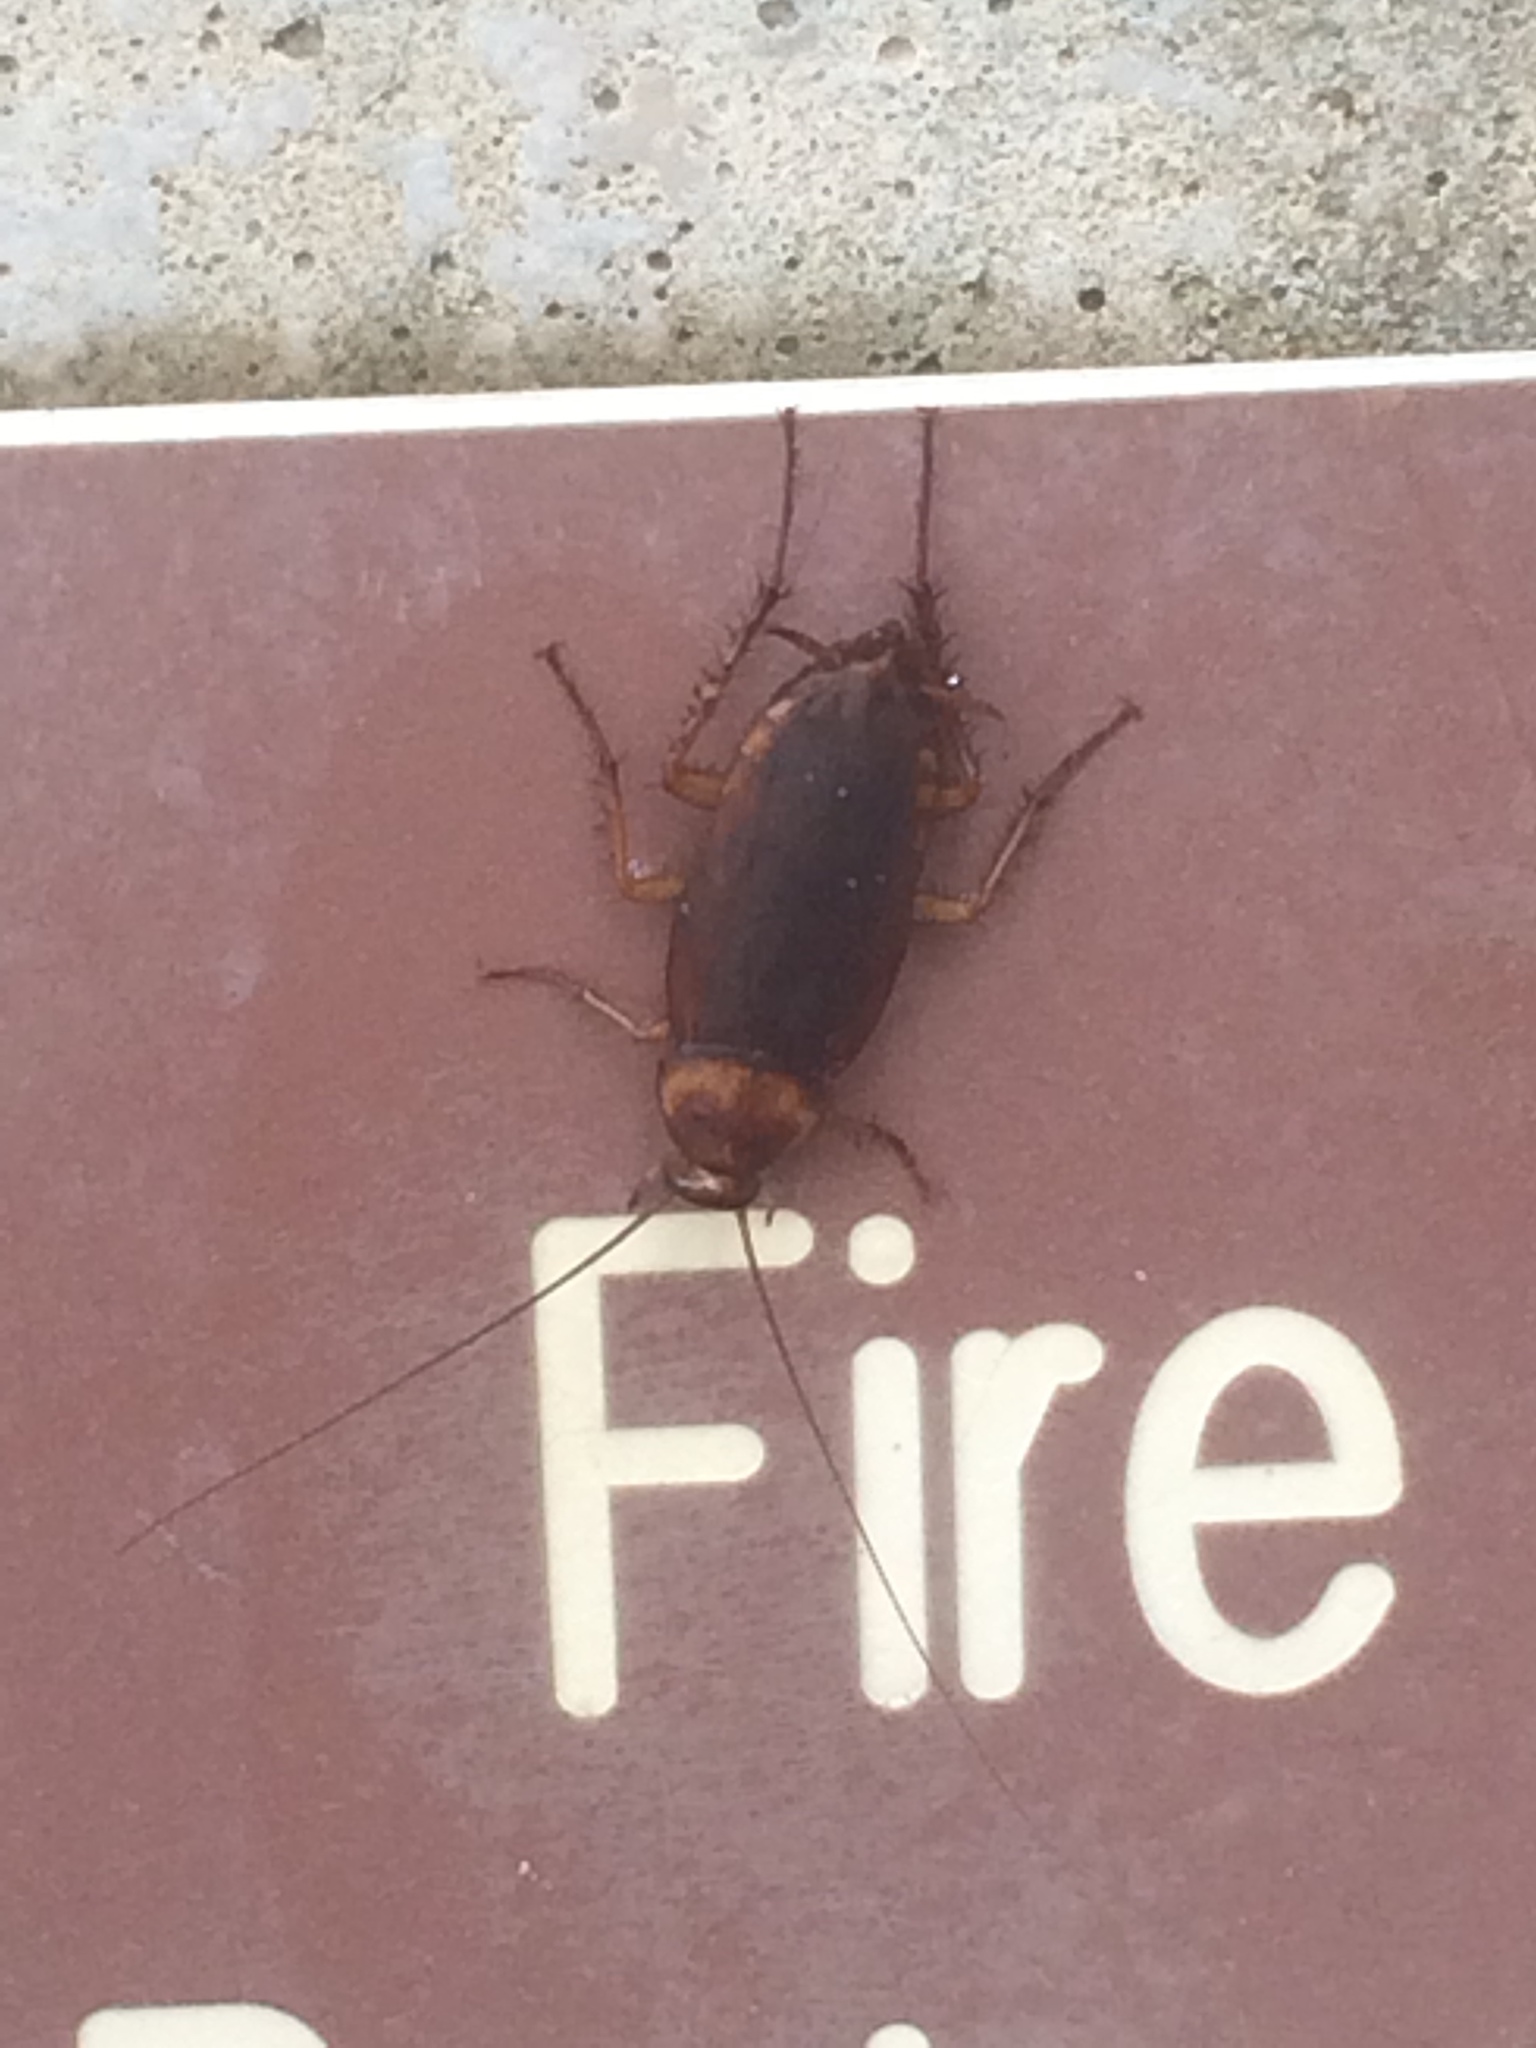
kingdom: Animalia
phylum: Arthropoda
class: Insecta
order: Blattodea
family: Blattidae
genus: Periplaneta
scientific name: Periplaneta americana
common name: American cockroach
